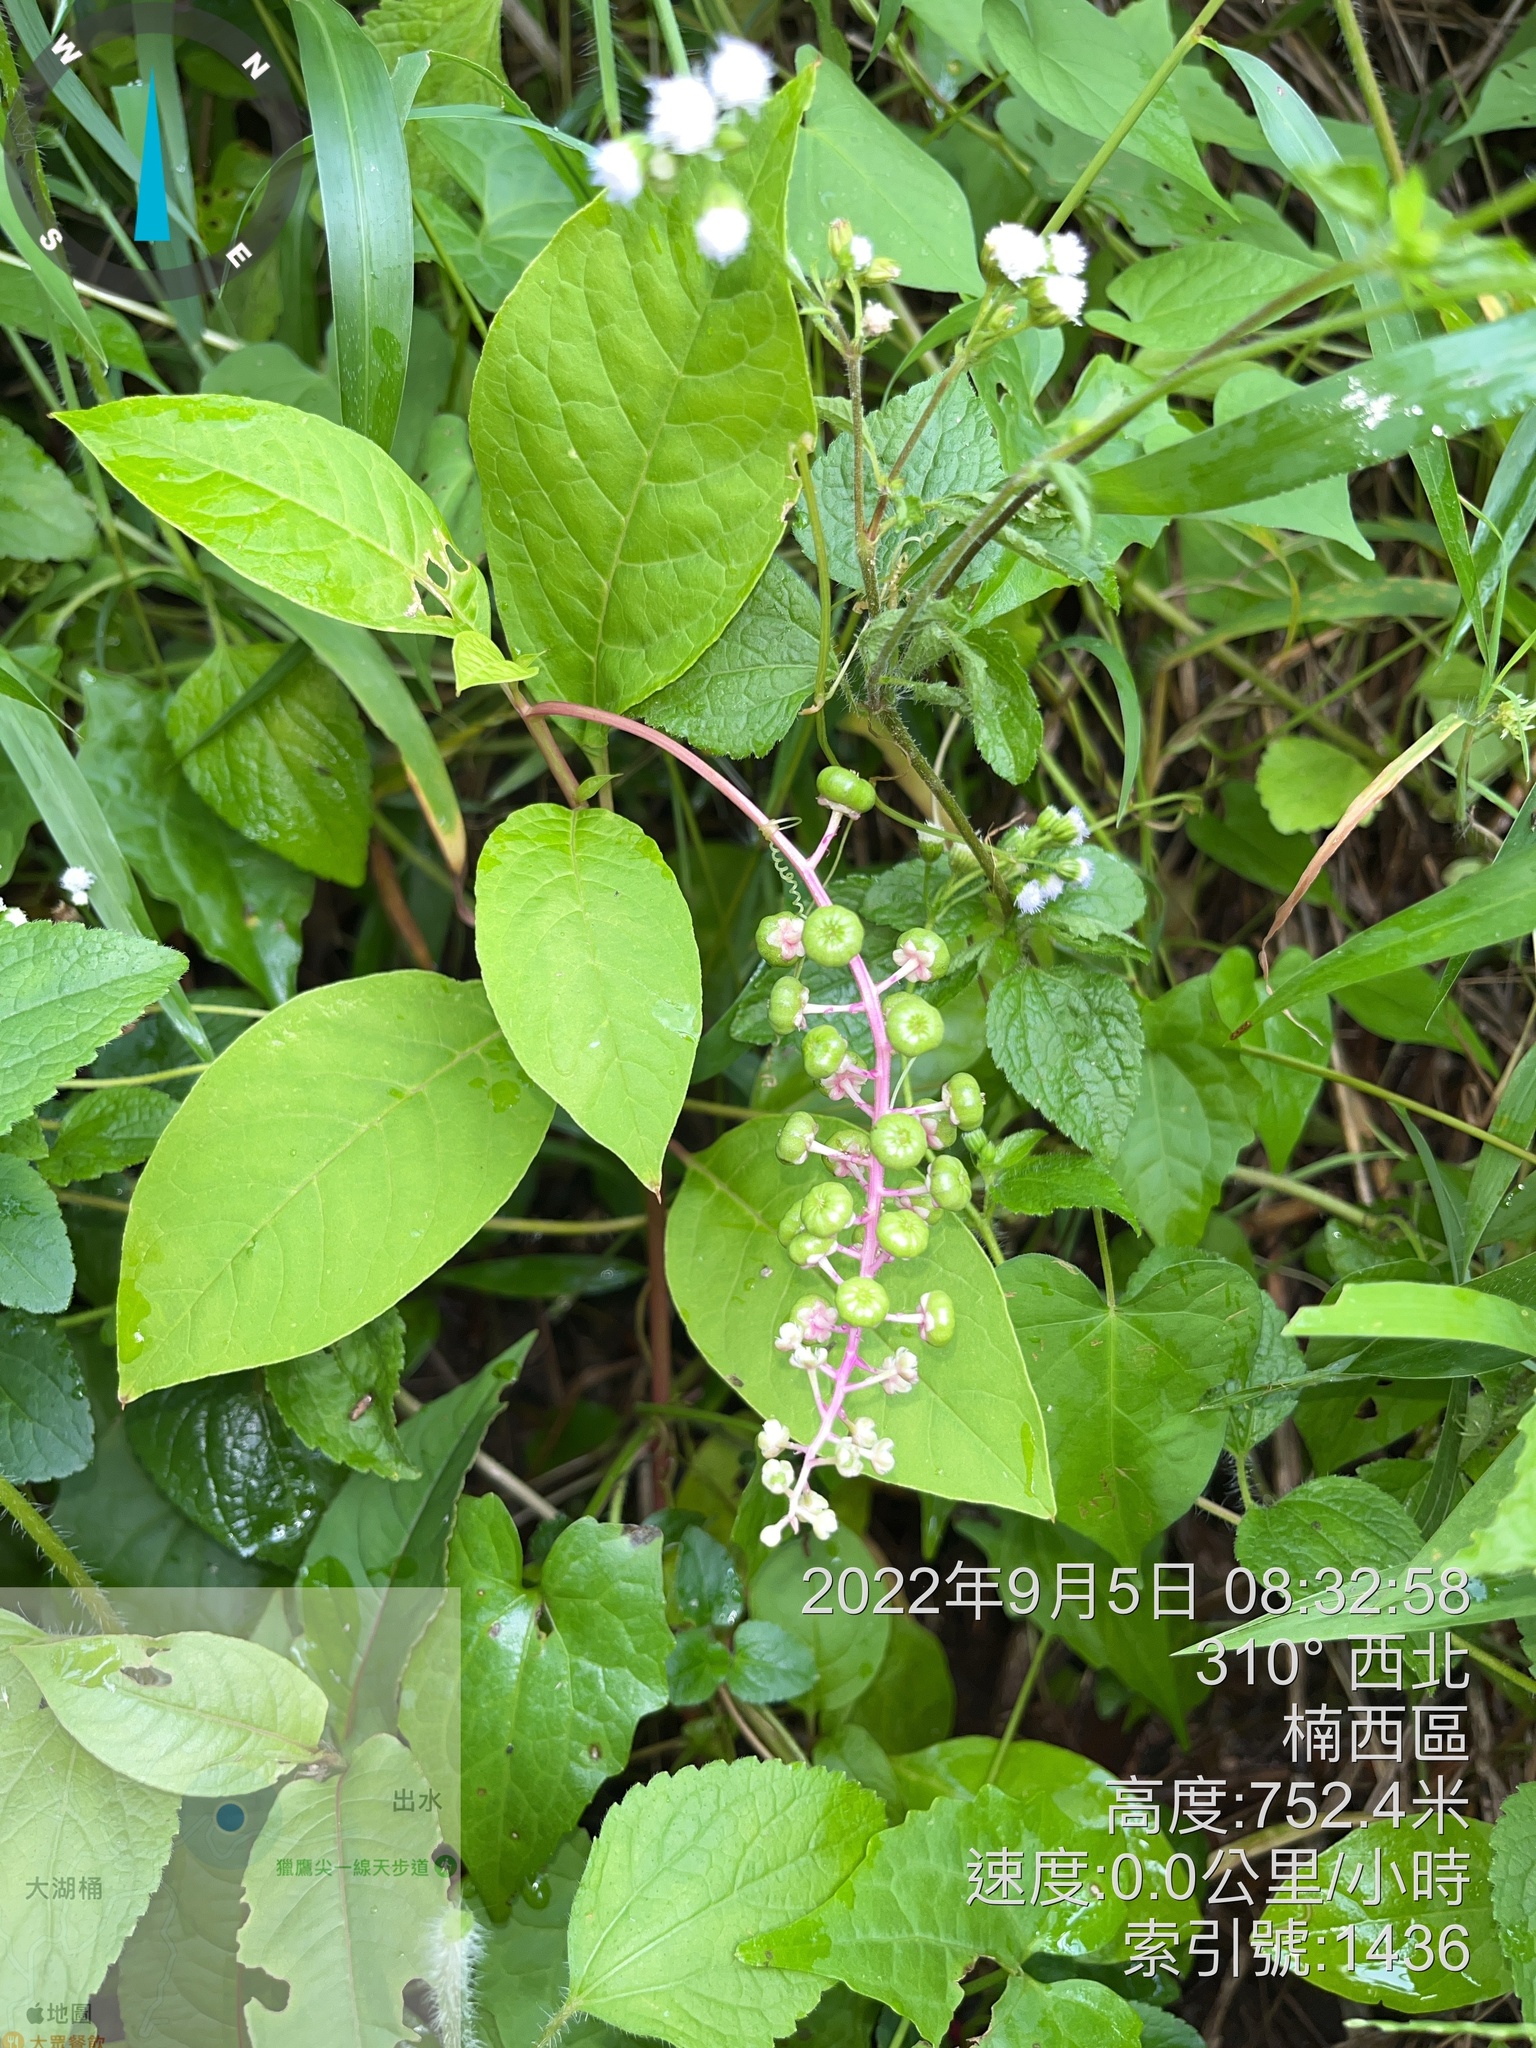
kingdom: Plantae
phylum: Tracheophyta
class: Magnoliopsida
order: Caryophyllales
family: Phytolaccaceae
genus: Phytolacca
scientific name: Phytolacca americana
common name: American pokeweed
